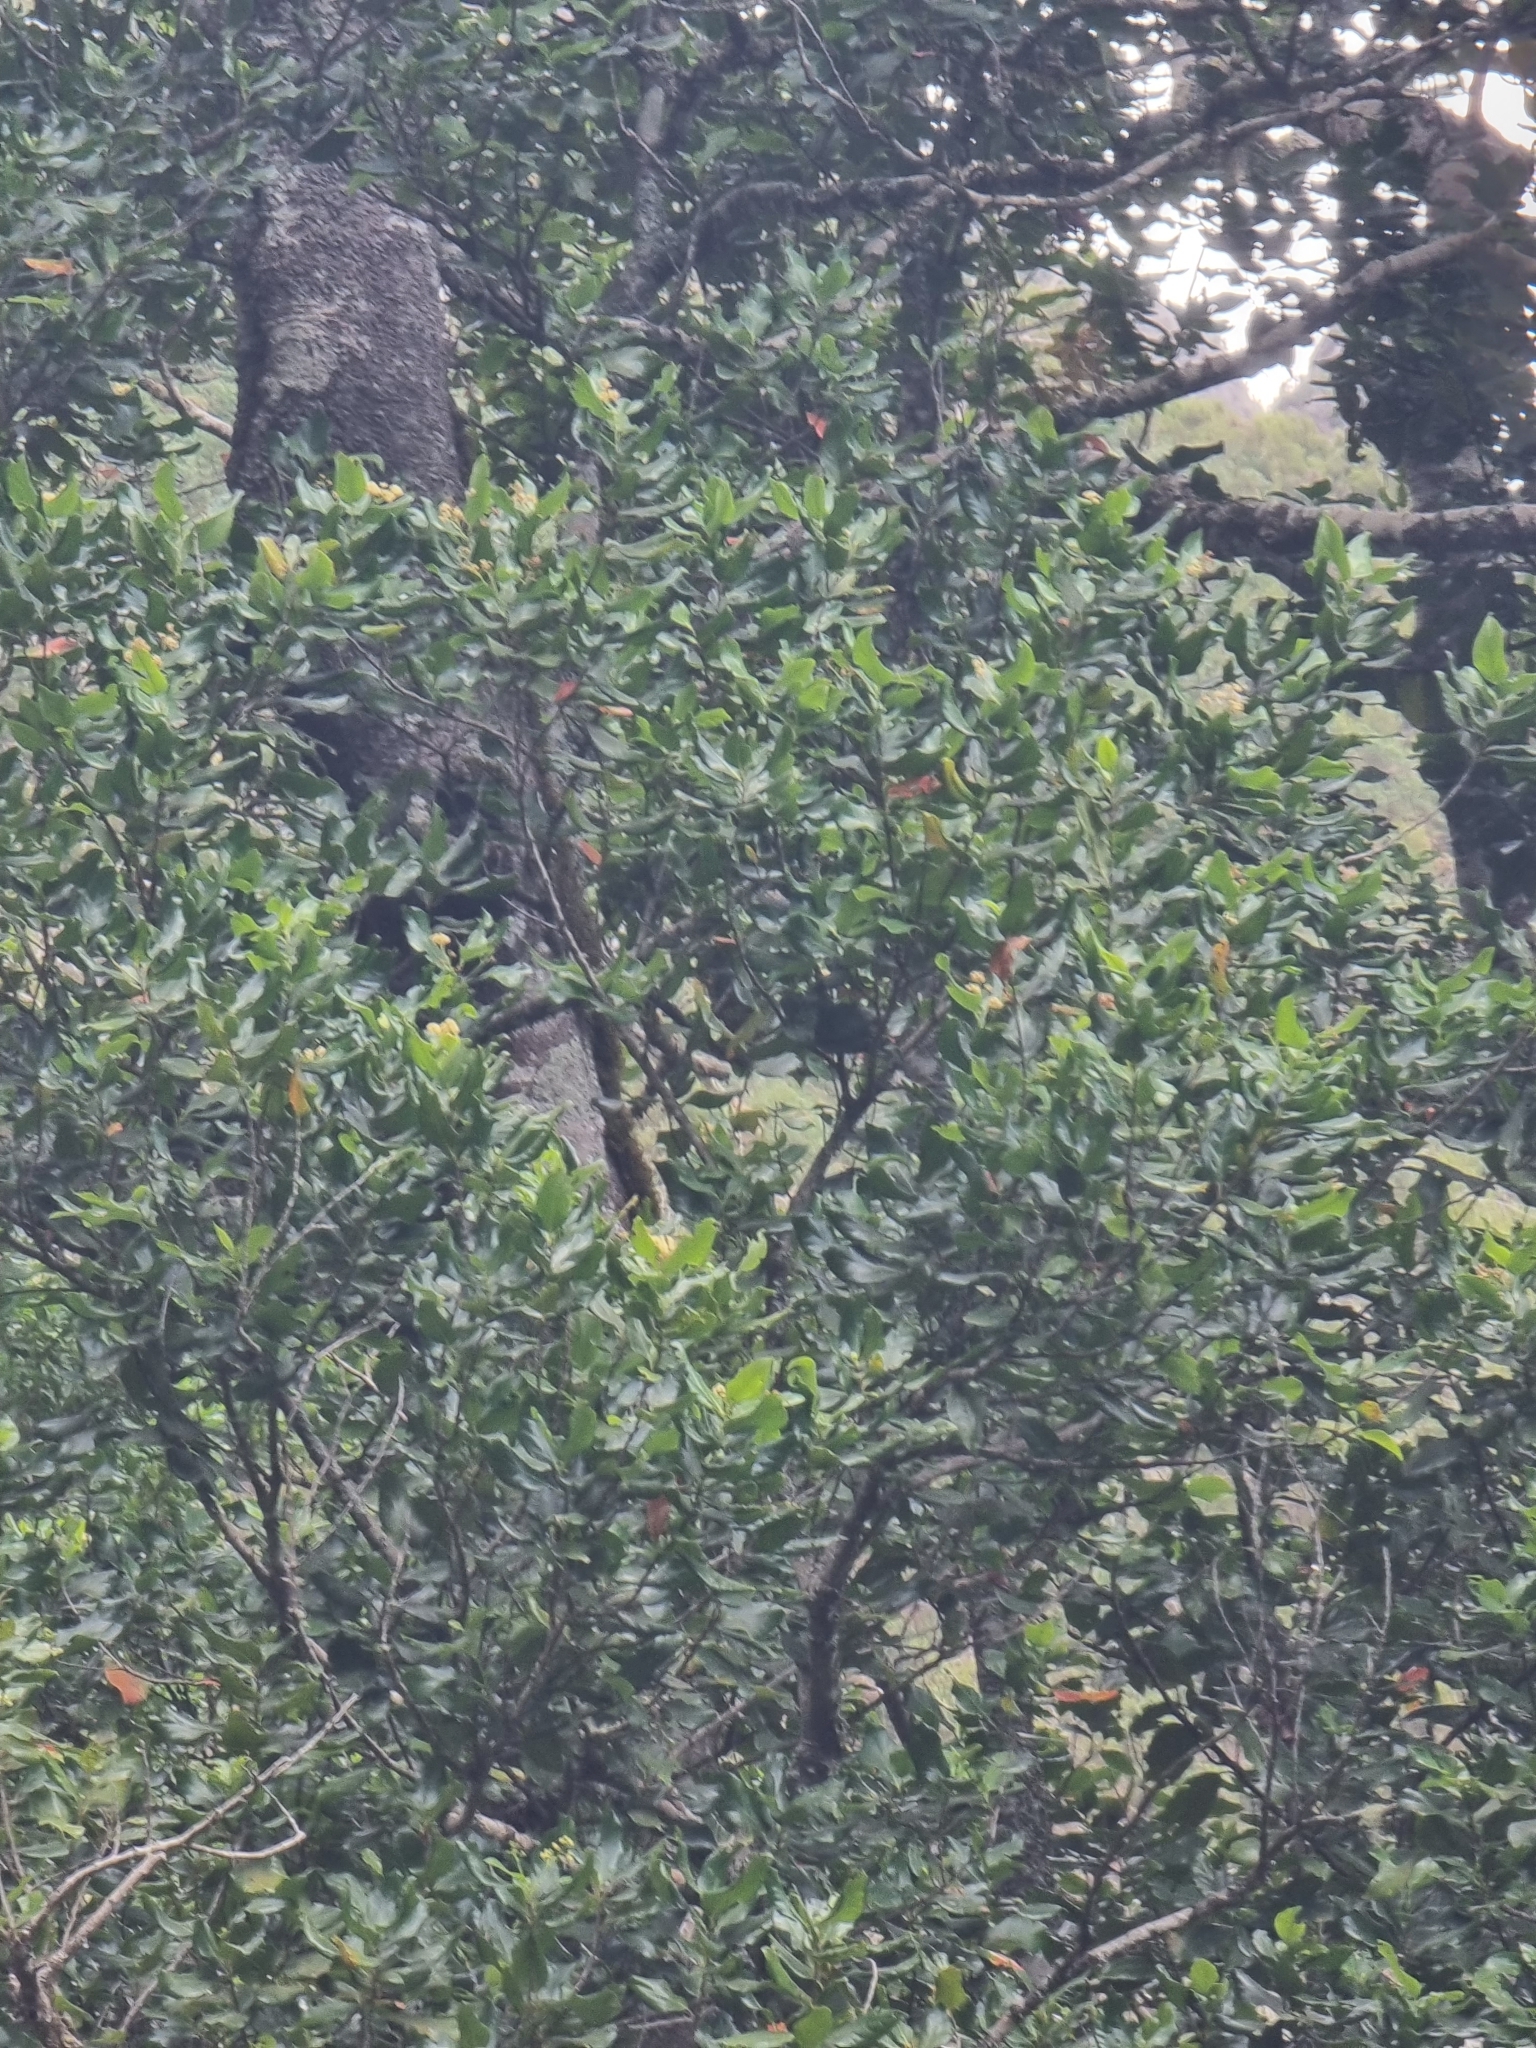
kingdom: Plantae
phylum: Tracheophyta
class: Magnoliopsida
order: Laurales
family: Lauraceae
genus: Mespilodaphne
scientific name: Mespilodaphne foetens
